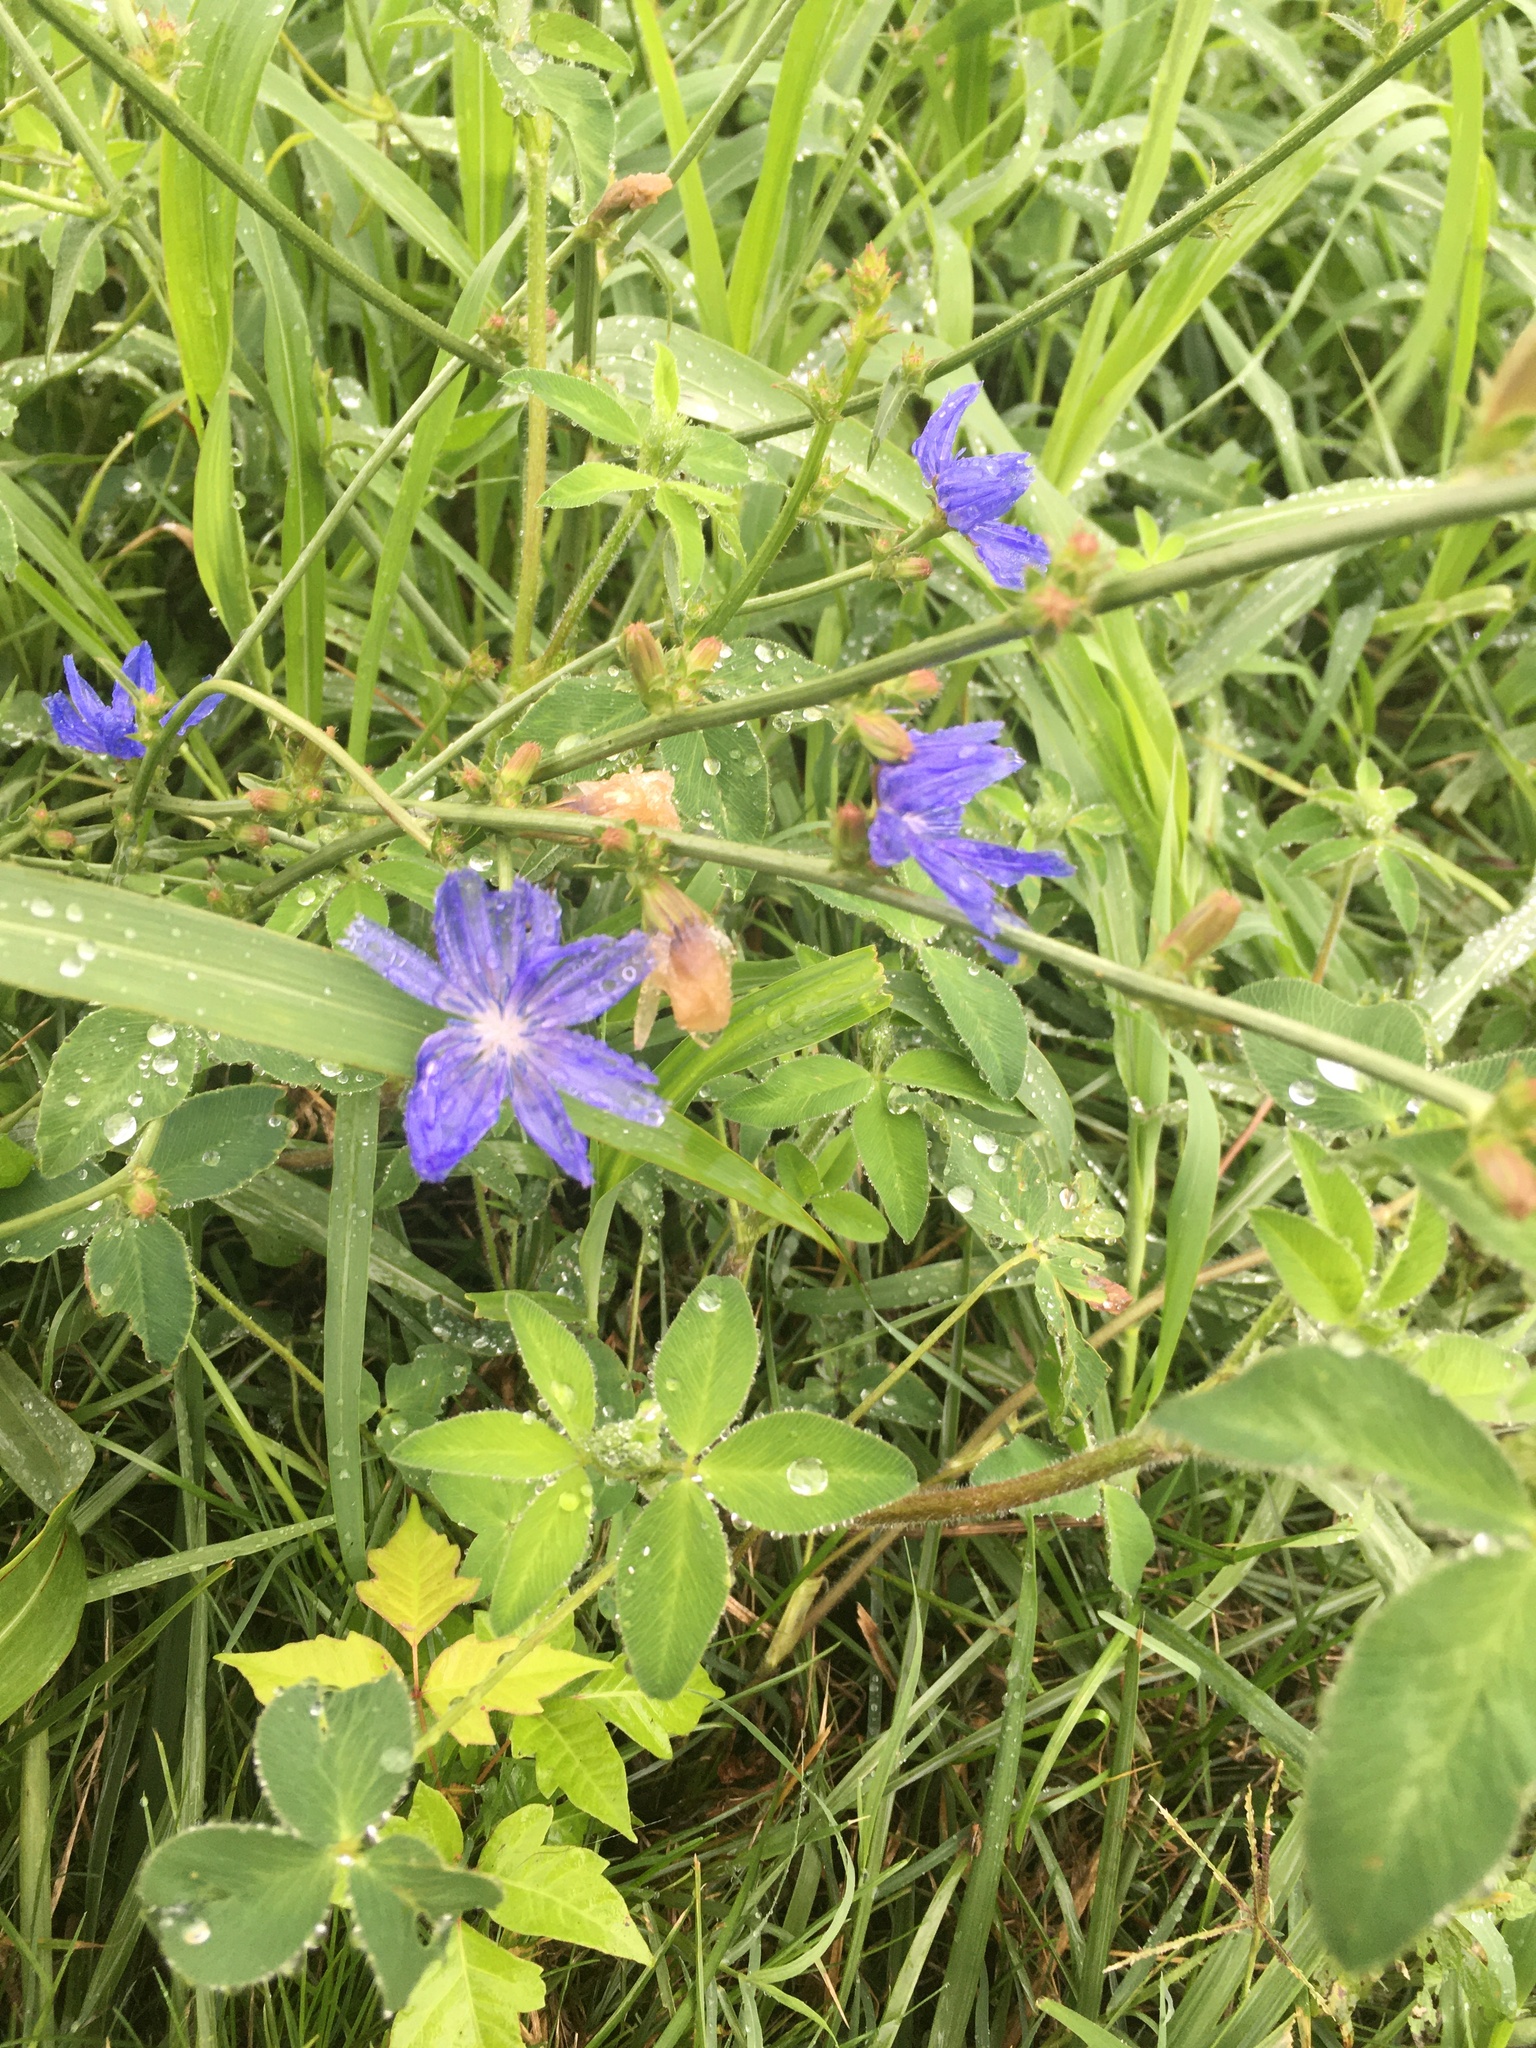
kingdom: Plantae
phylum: Tracheophyta
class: Magnoliopsida
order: Asterales
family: Asteraceae
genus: Cichorium
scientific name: Cichorium intybus
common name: Chicory
